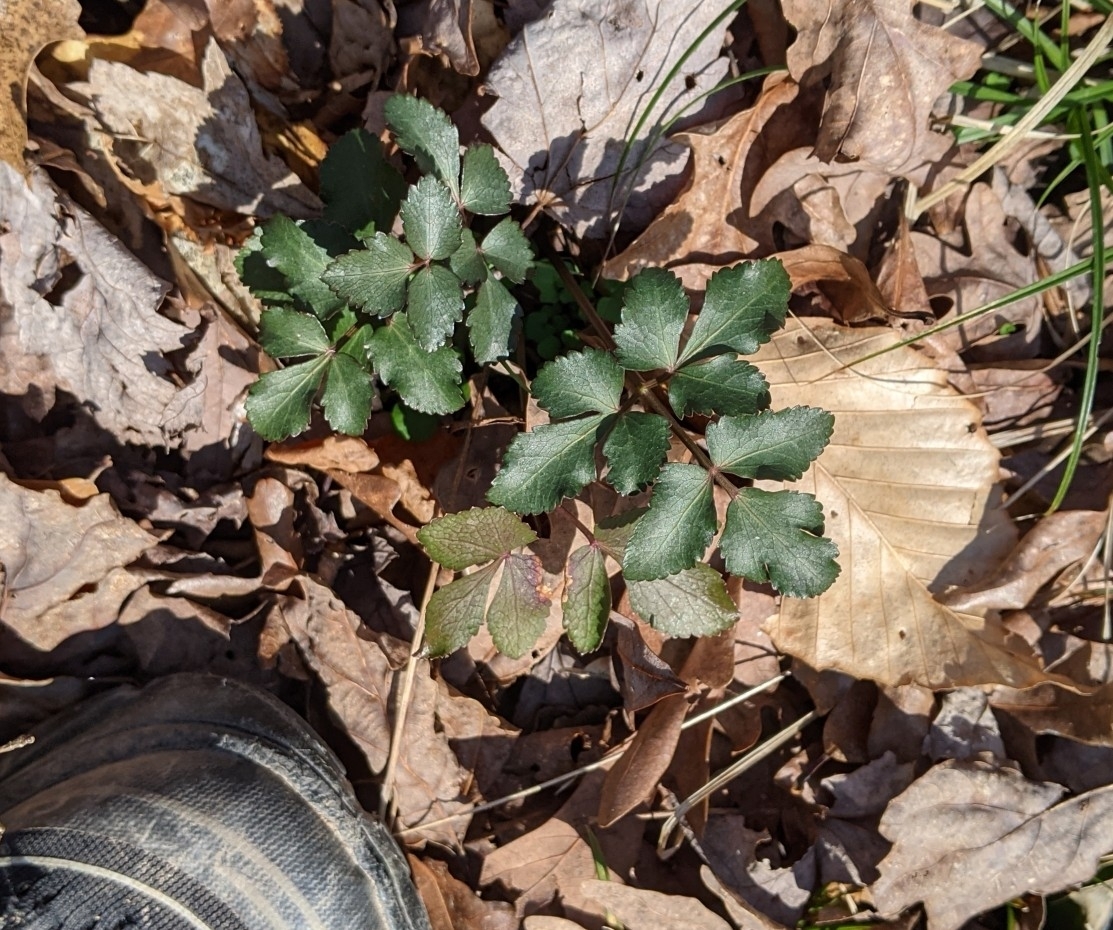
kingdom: Plantae
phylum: Tracheophyta
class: Magnoliopsida
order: Apiales
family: Apiaceae
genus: Zizia
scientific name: Zizia aurea
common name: Golden alexanders
